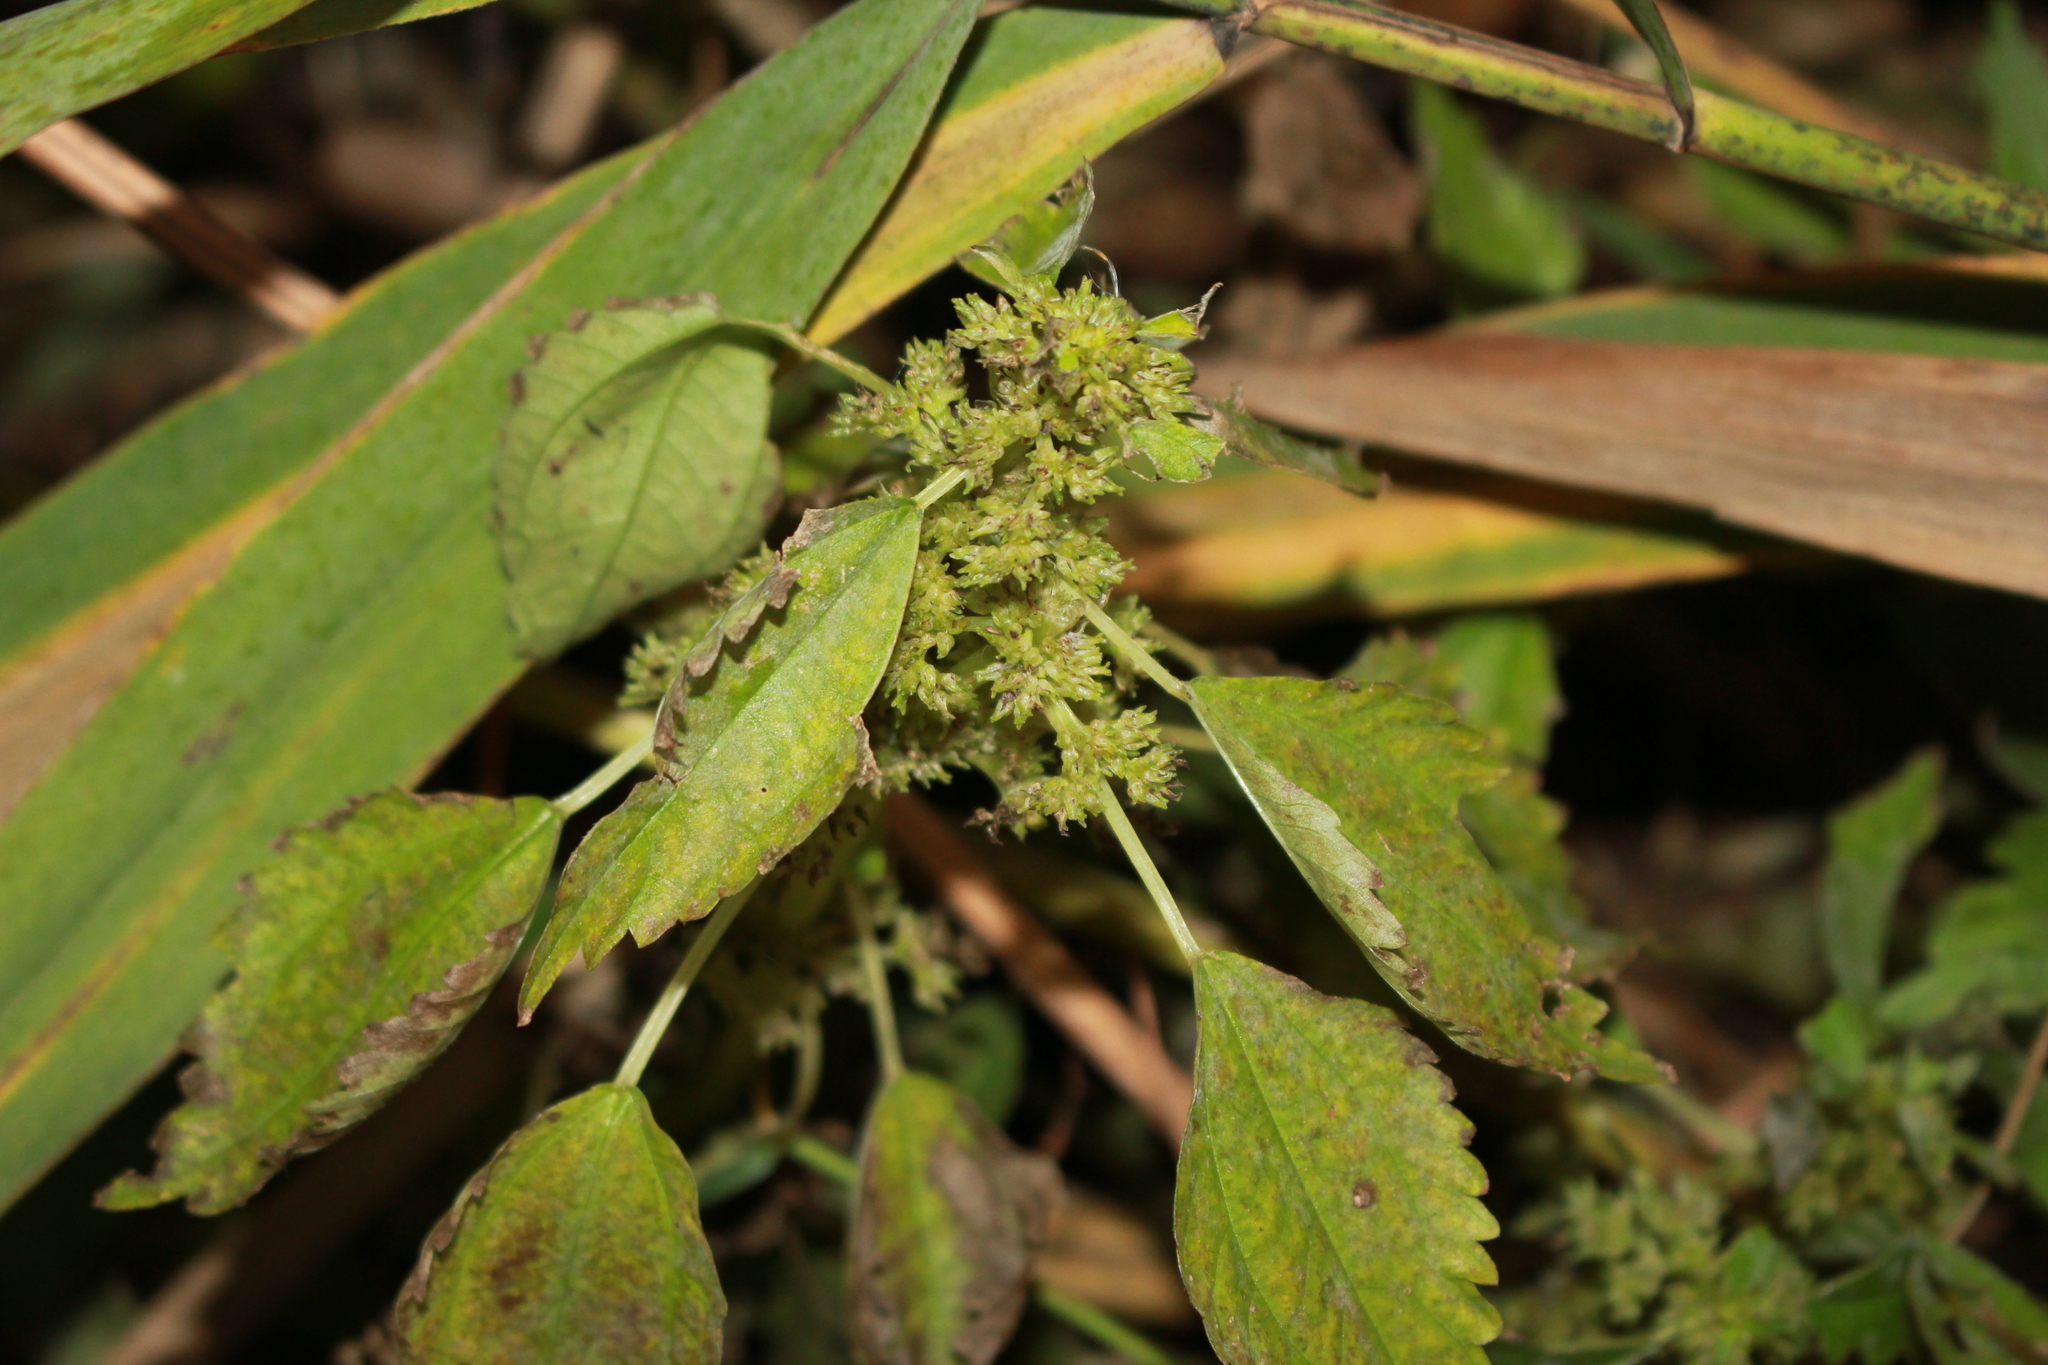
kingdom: Plantae
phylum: Tracheophyta
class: Magnoliopsida
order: Rosales
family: Urticaceae
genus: Pilea
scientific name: Pilea pumila
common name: Clearweed
